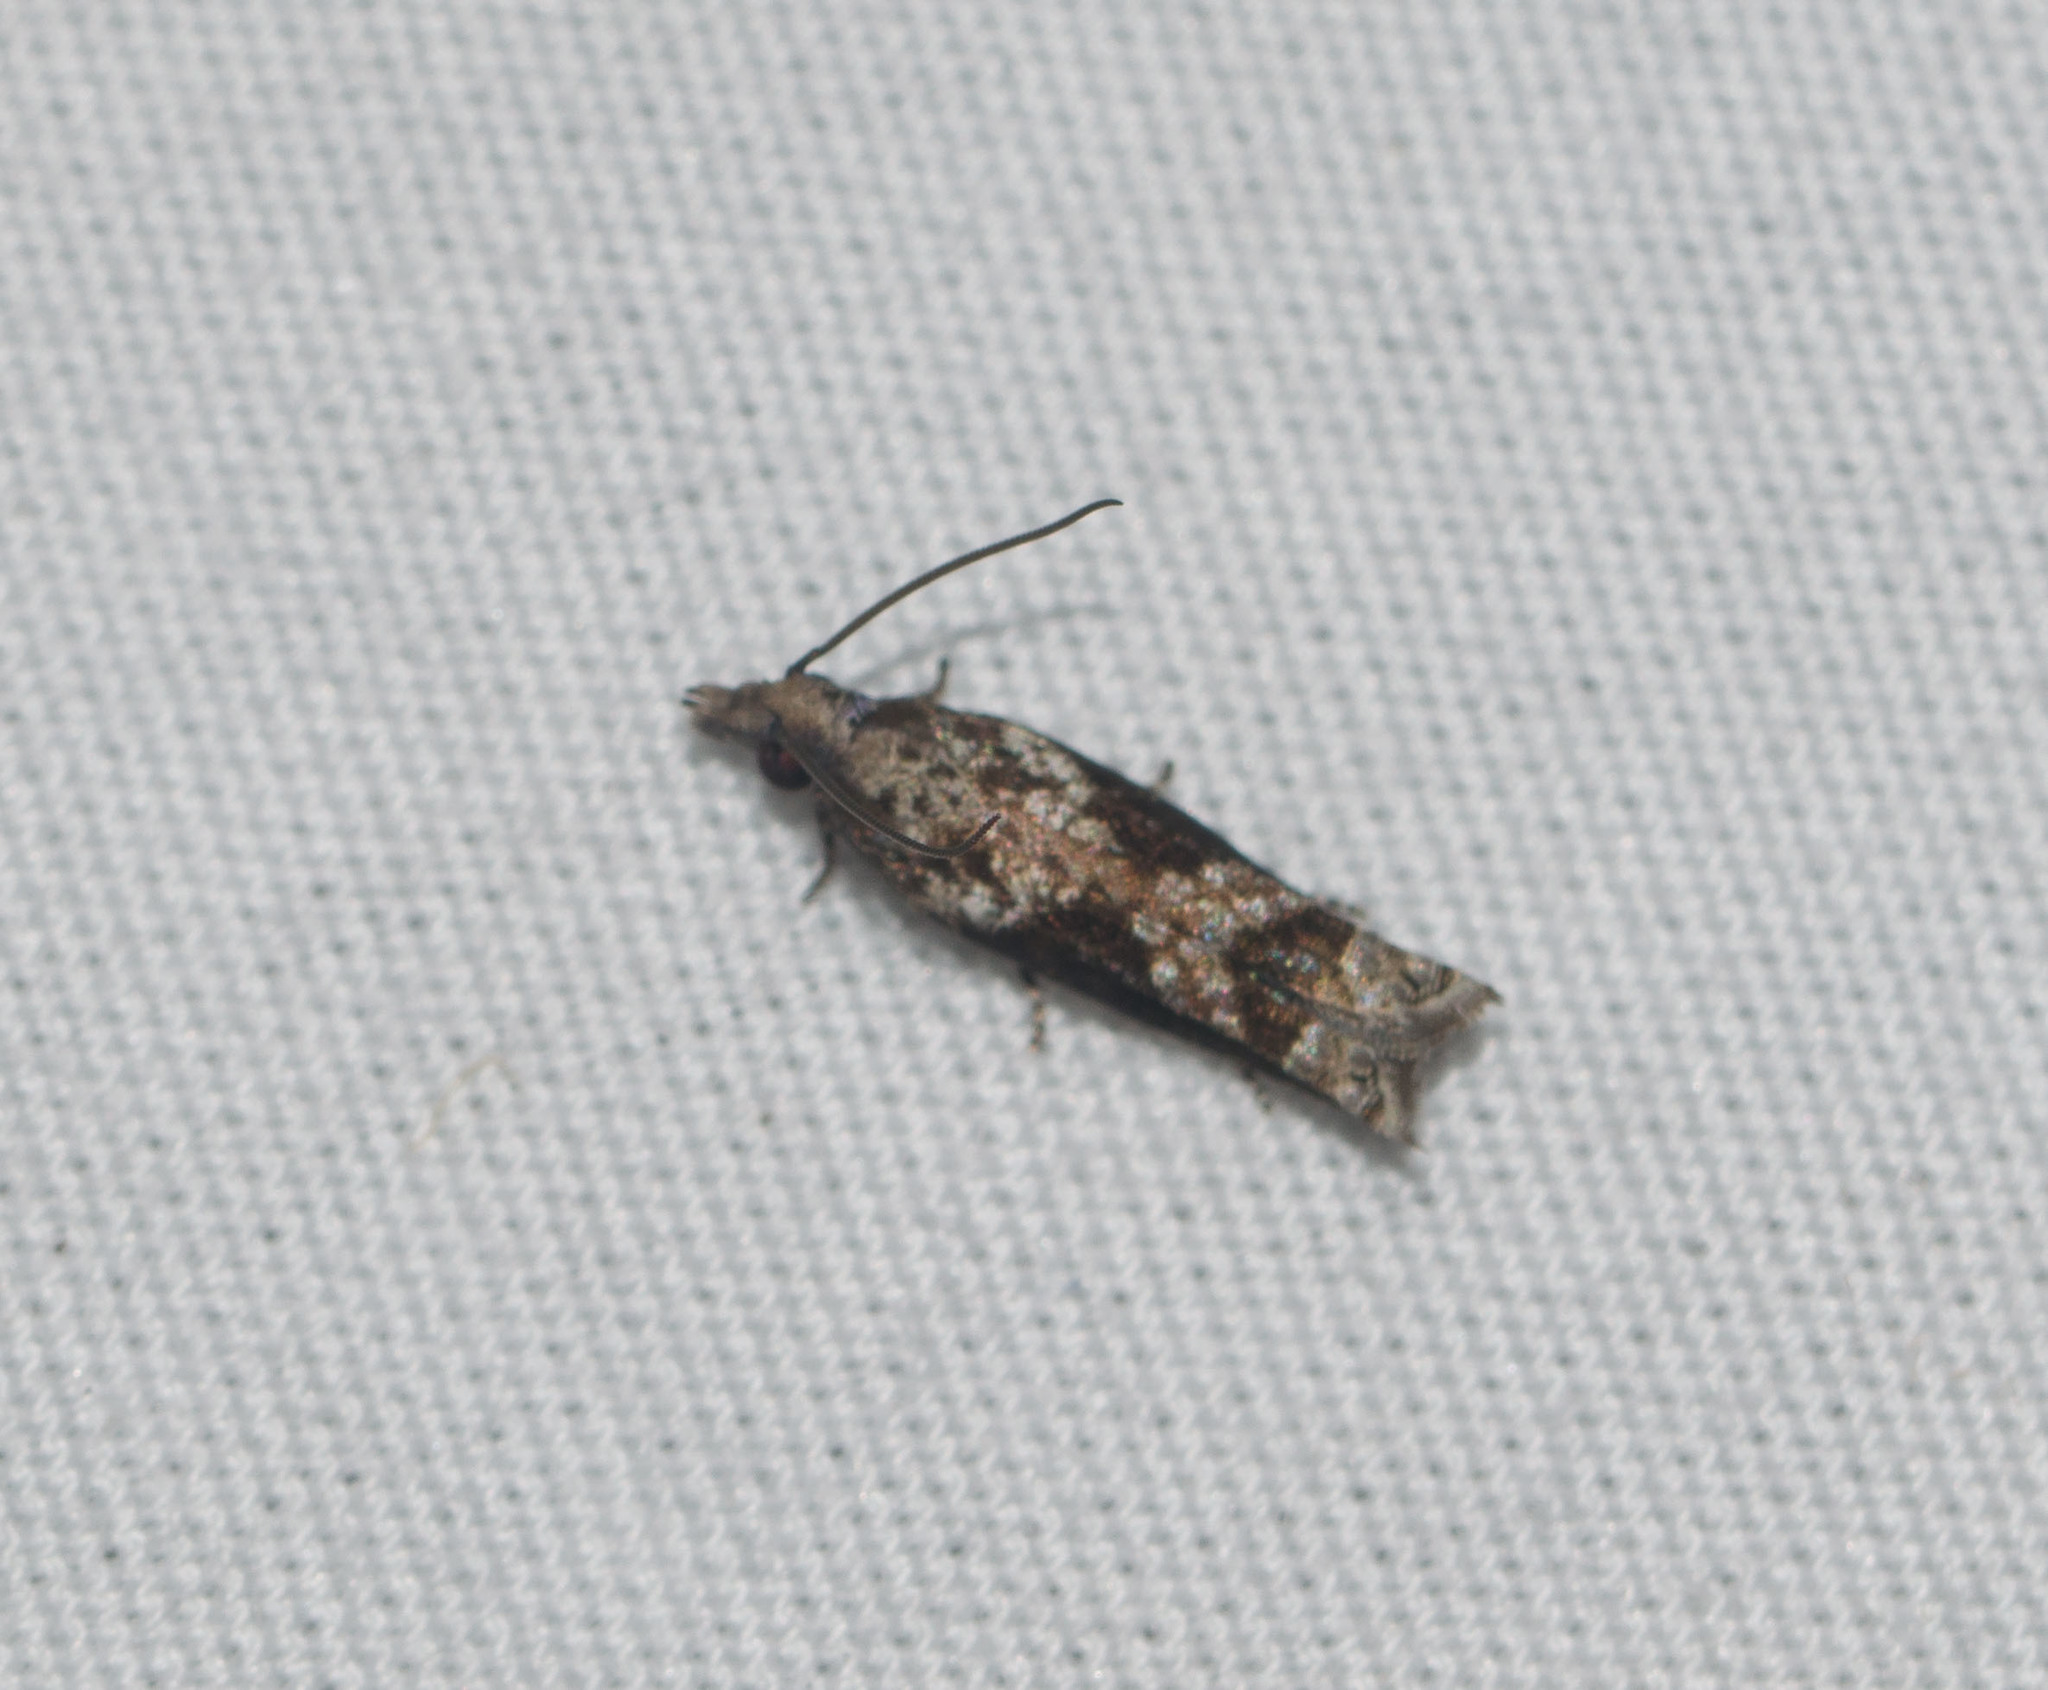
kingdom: Animalia
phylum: Arthropoda
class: Insecta
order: Lepidoptera
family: Tortricidae
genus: Eccoptocera
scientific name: Eccoptocera
